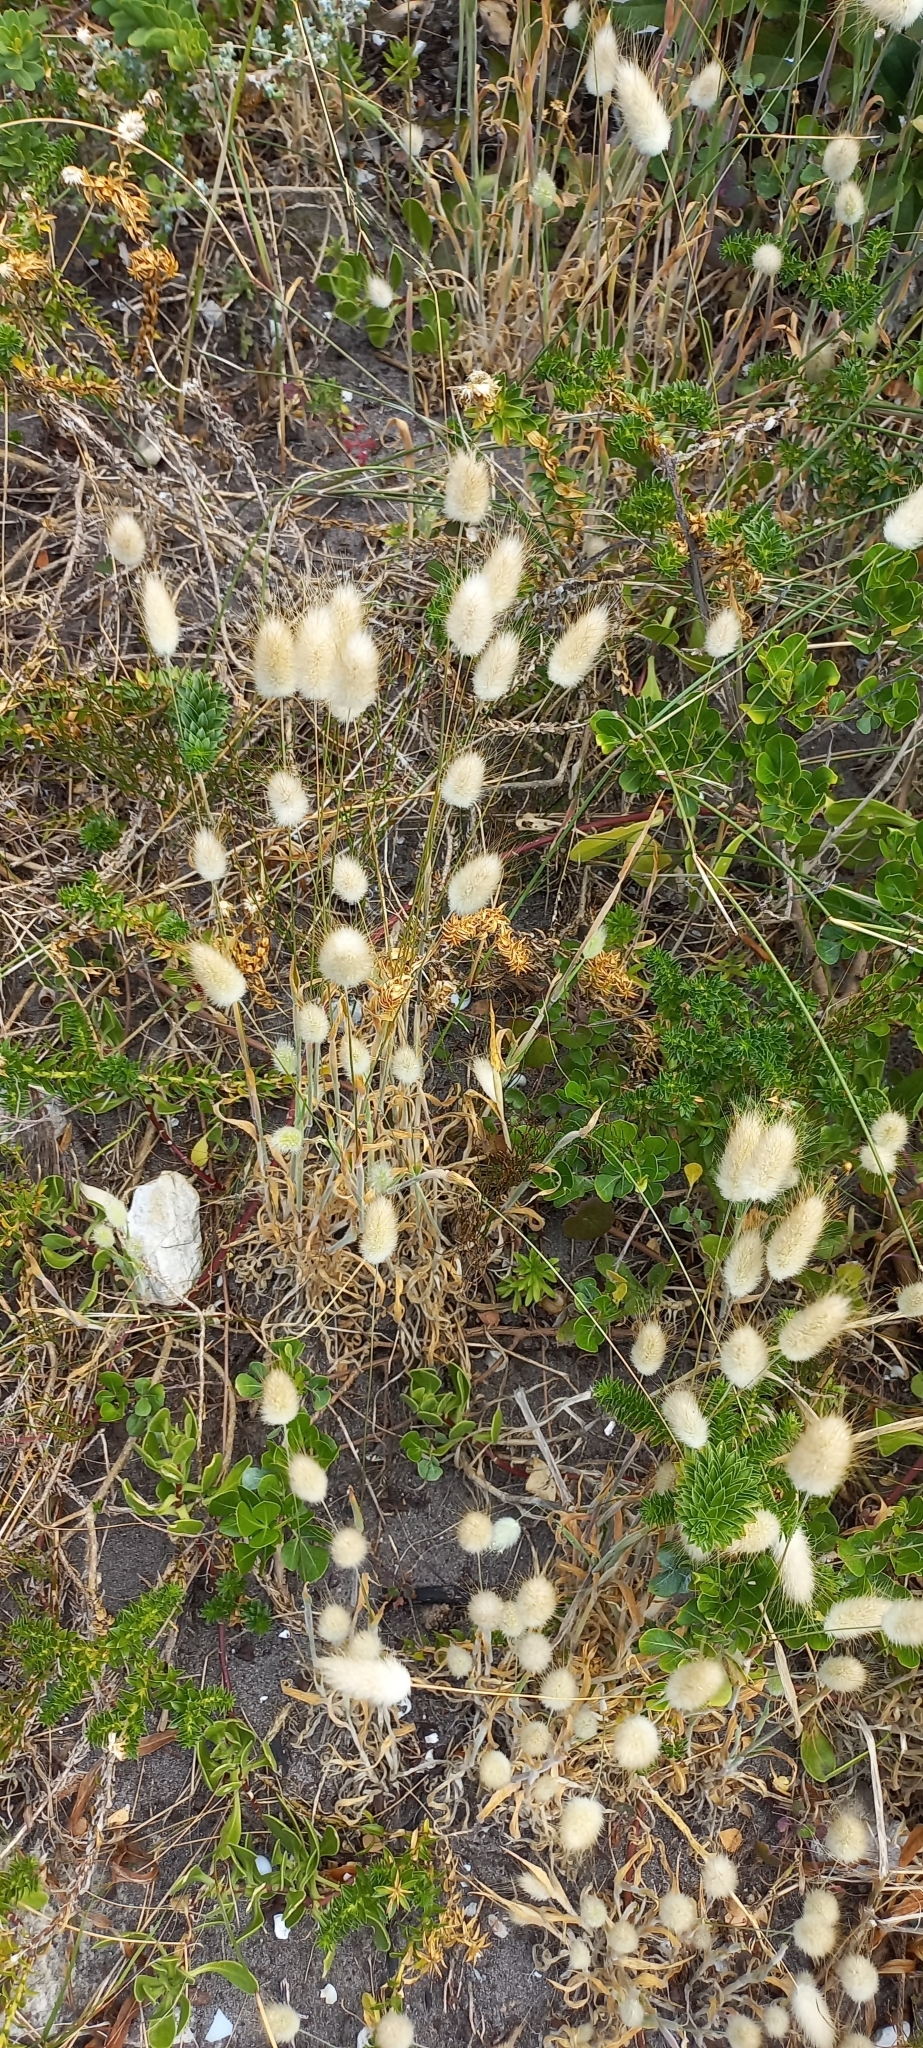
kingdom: Plantae
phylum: Tracheophyta
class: Liliopsida
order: Poales
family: Poaceae
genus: Lagurus
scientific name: Lagurus ovatus
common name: Hare's-tail
